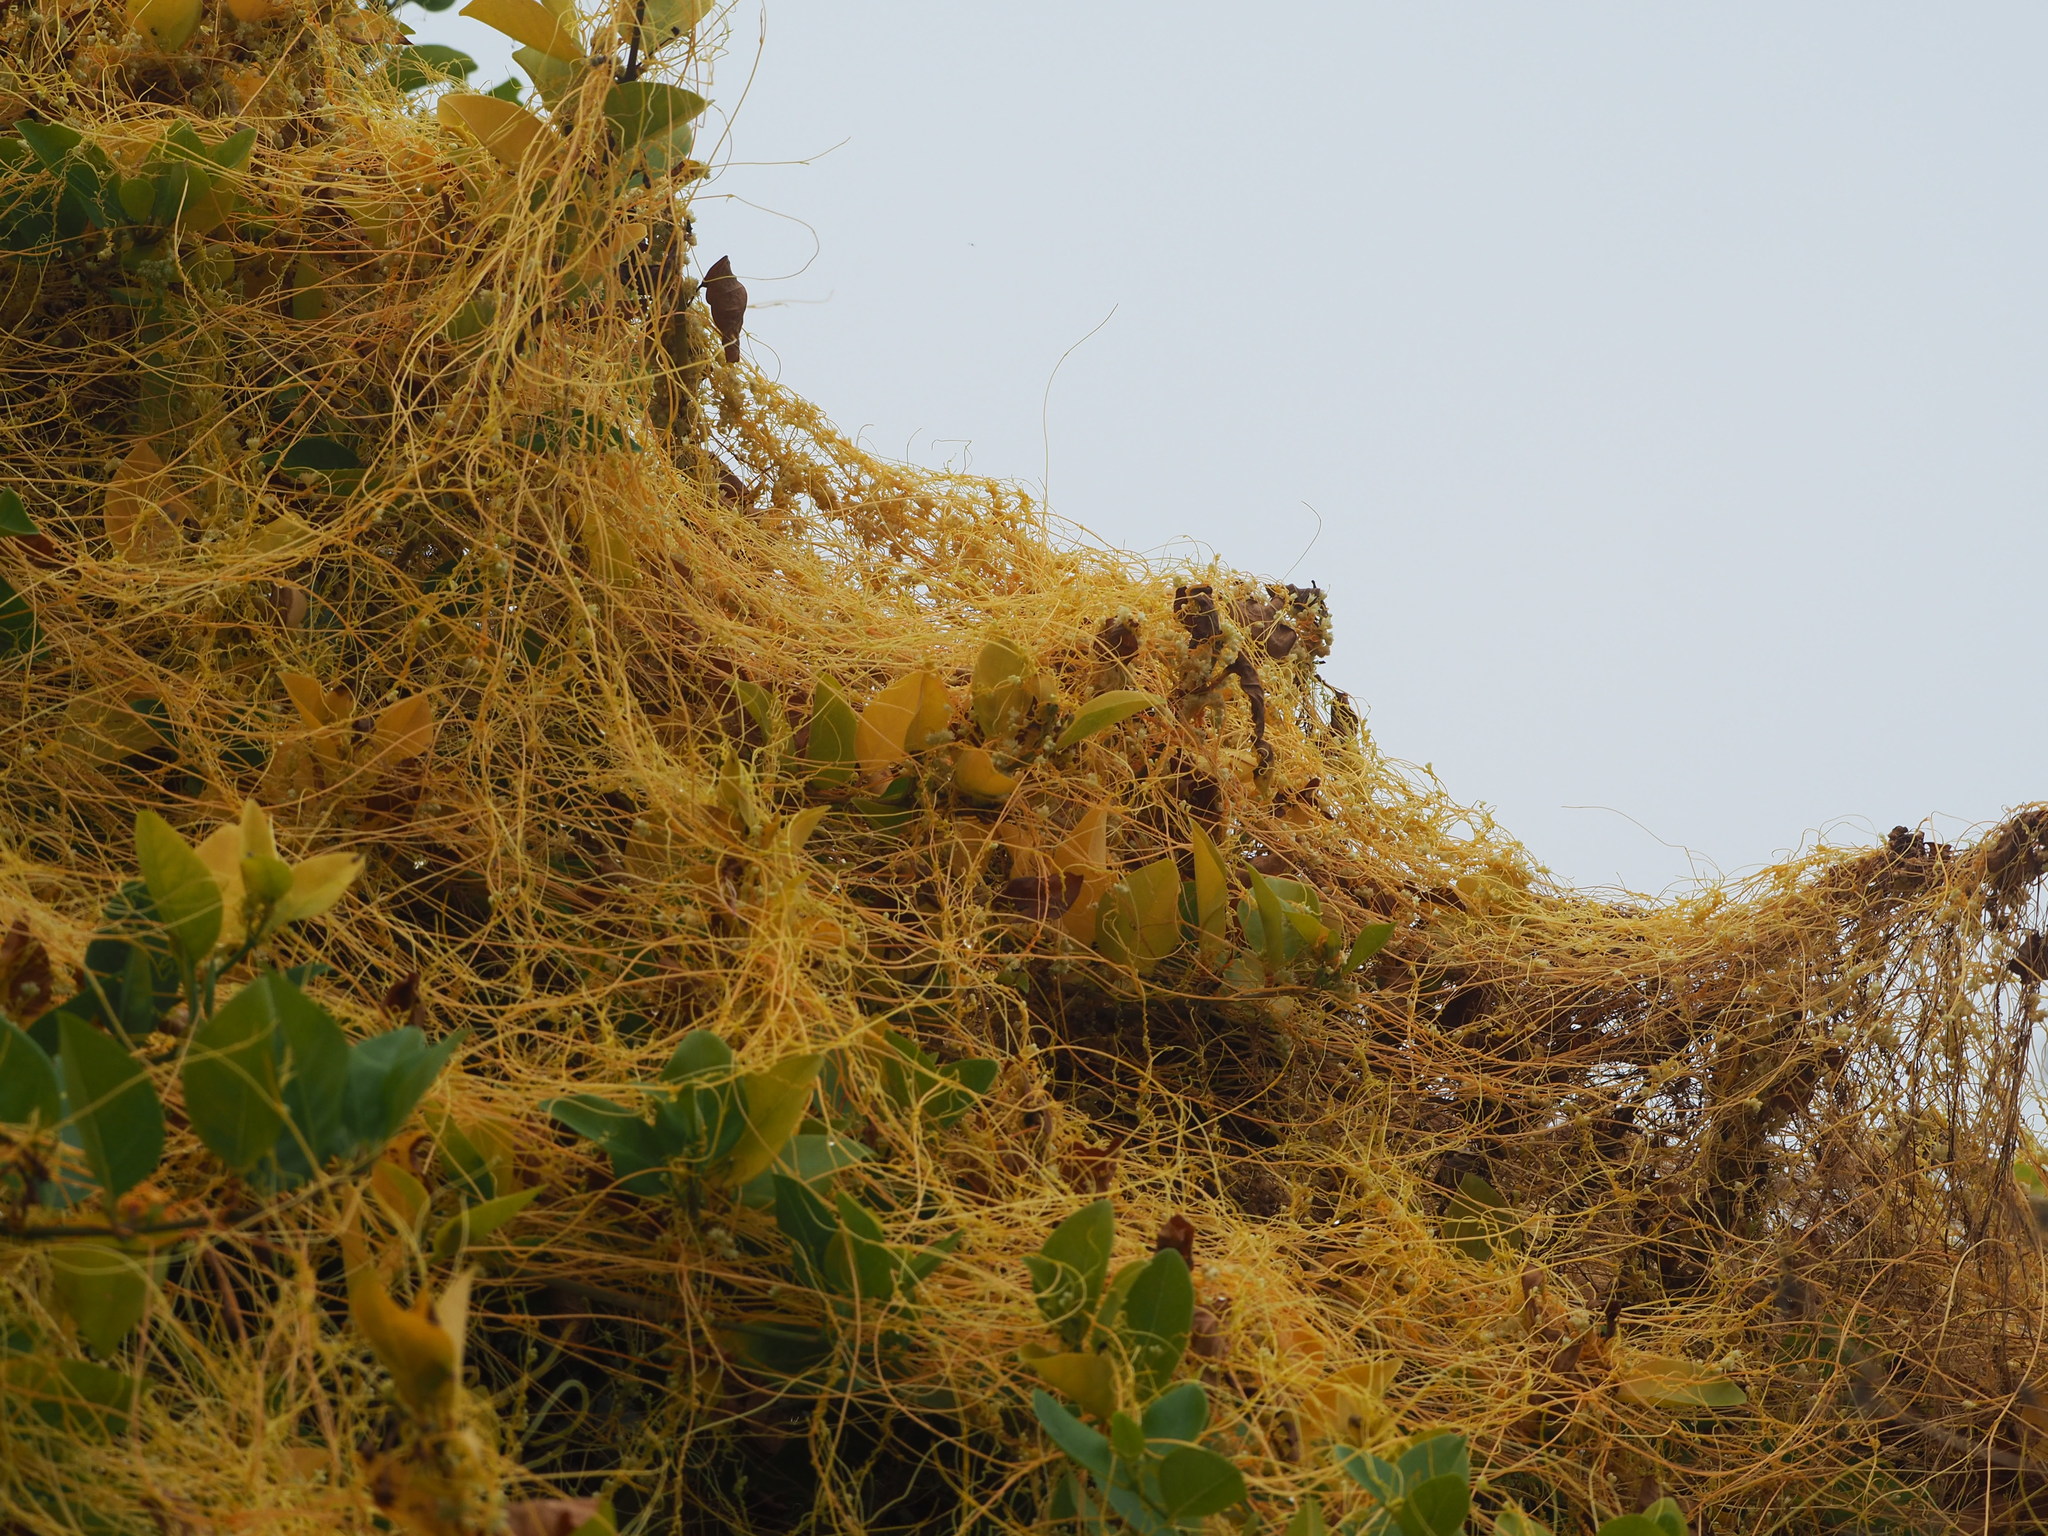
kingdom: Plantae
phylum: Tracheophyta
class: Magnoliopsida
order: Solanales
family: Convolvulaceae
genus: Cuscuta
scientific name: Cuscuta campestris
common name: Yellow dodder
